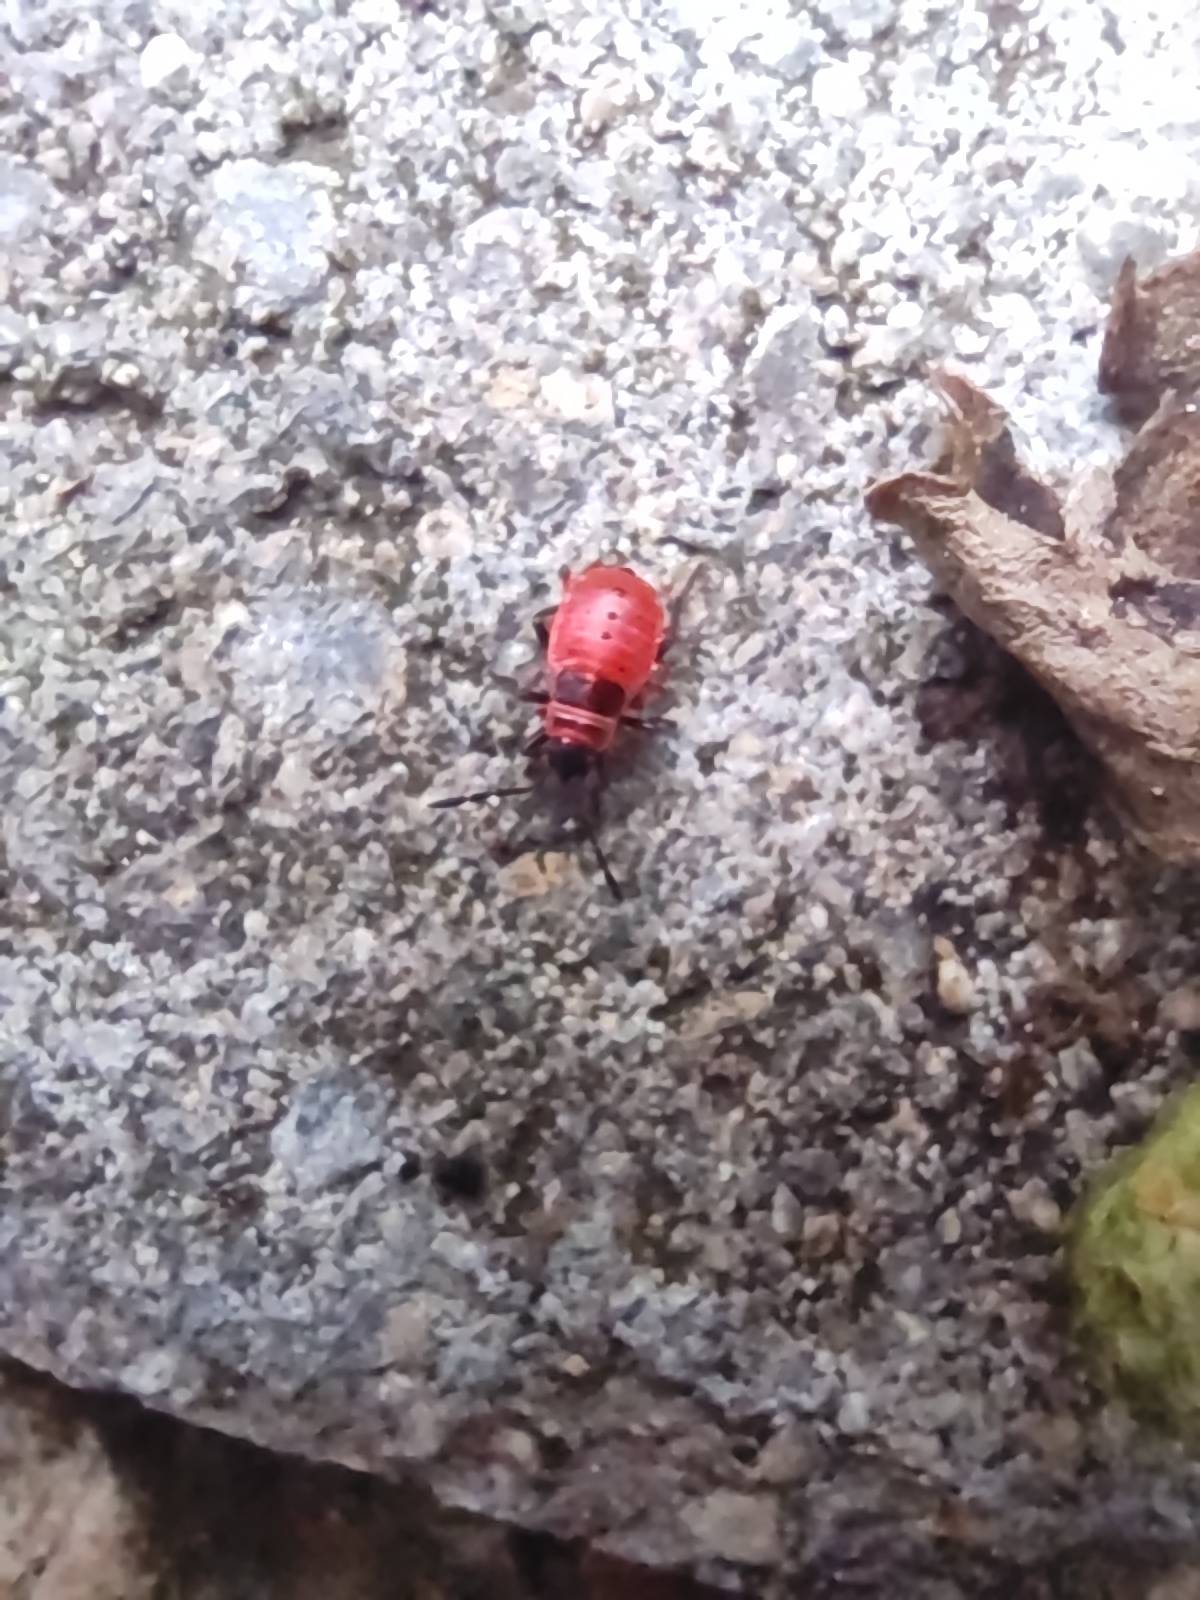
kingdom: Animalia
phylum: Arthropoda
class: Insecta
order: Hemiptera
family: Pyrrhocoridae
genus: Pyrrhocoris
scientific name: Pyrrhocoris apterus
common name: Firebug
